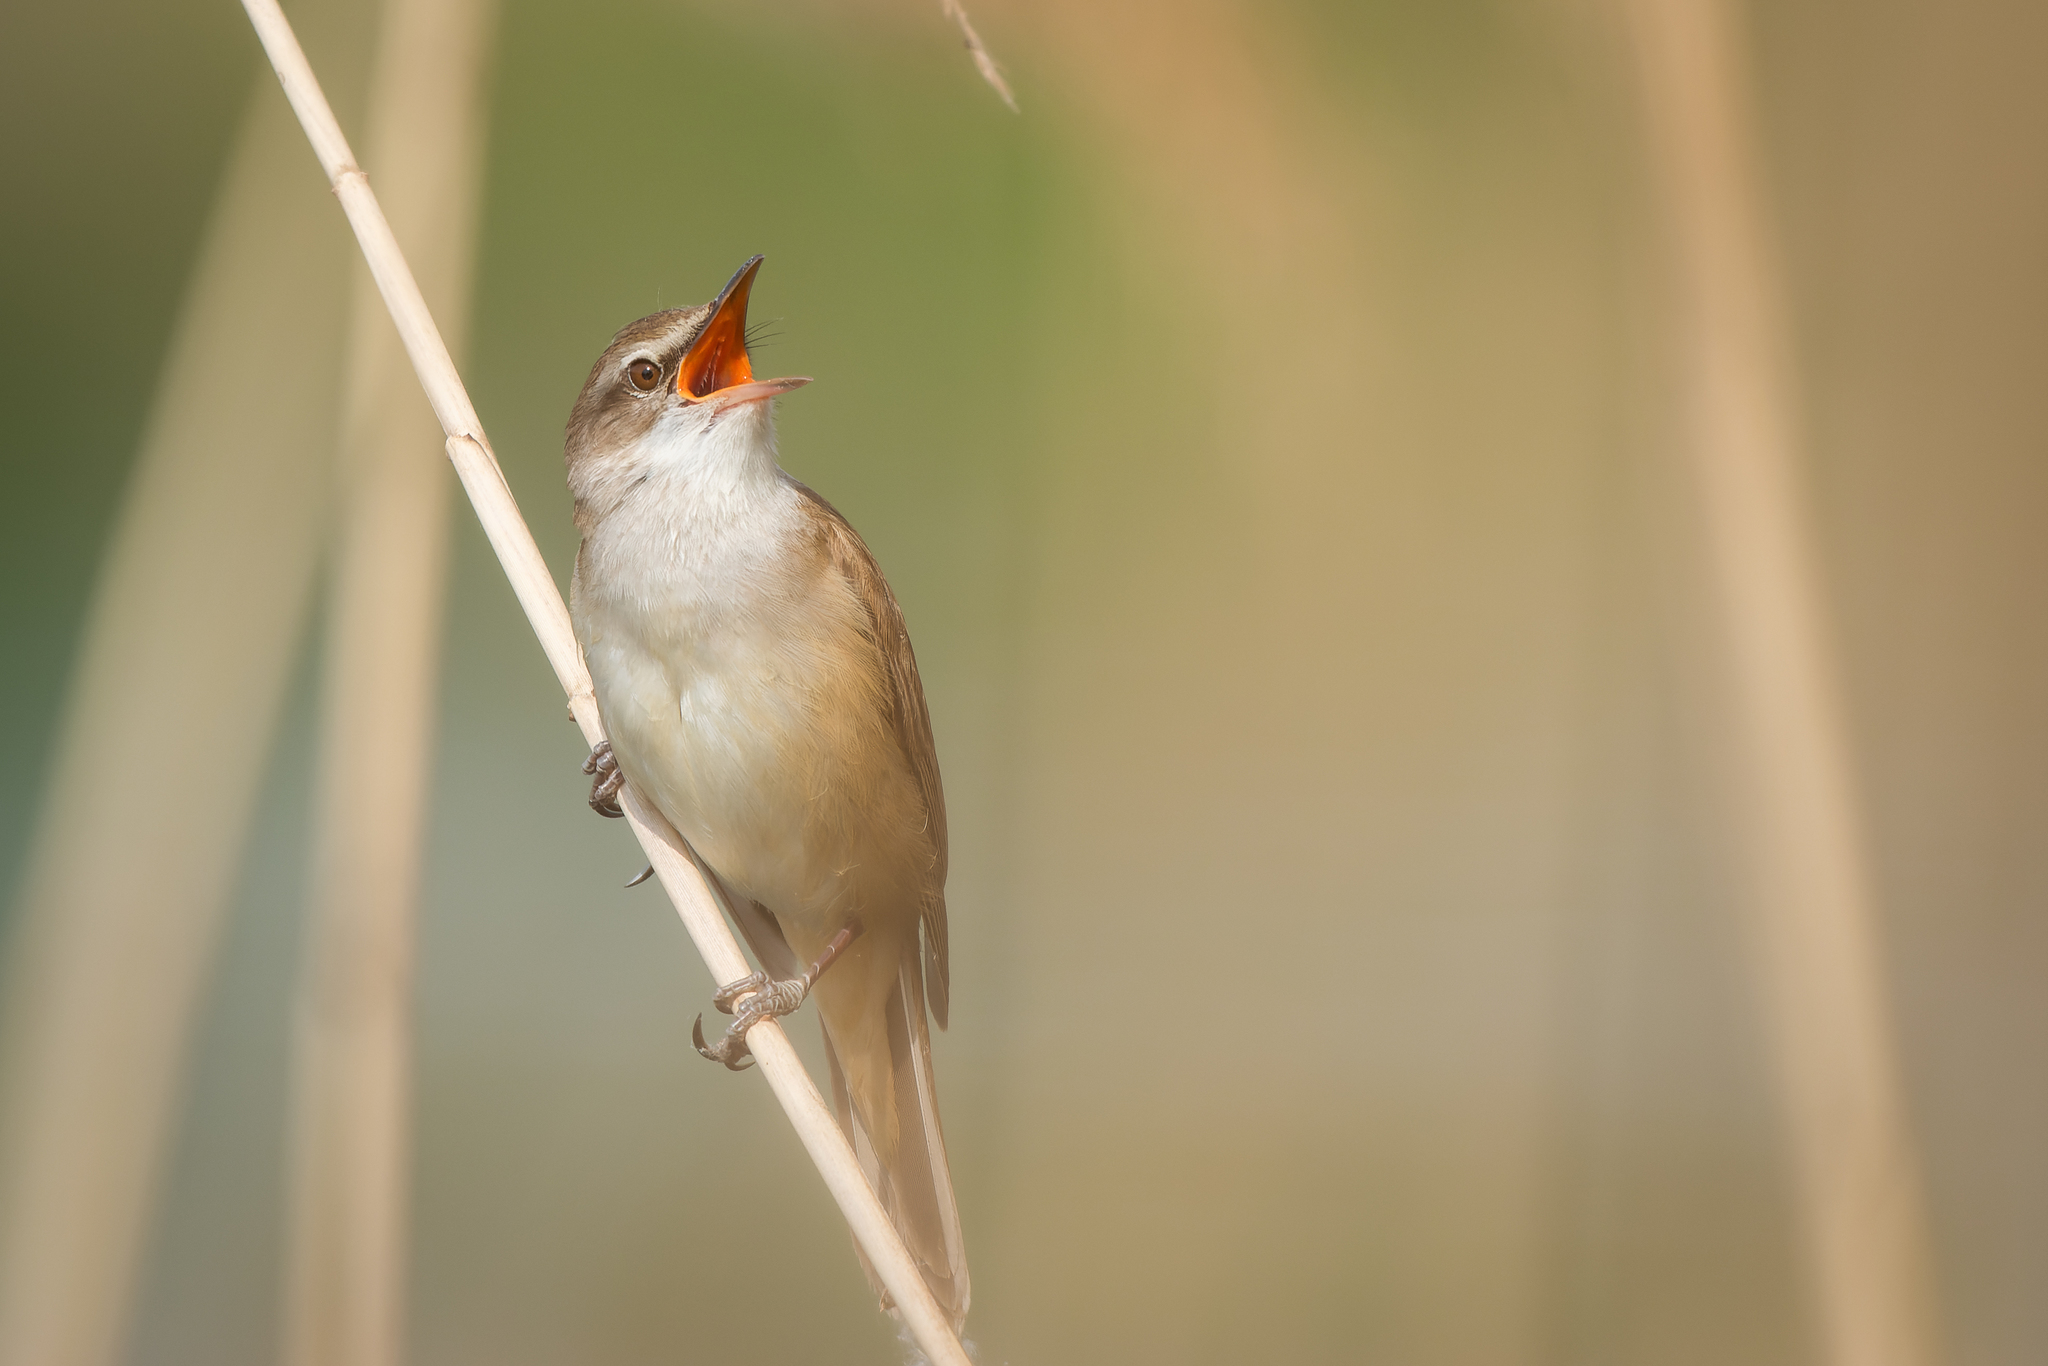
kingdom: Animalia
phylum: Chordata
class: Aves
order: Passeriformes
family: Acrocephalidae
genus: Acrocephalus
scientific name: Acrocephalus arundinaceus
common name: Great reed warbler
